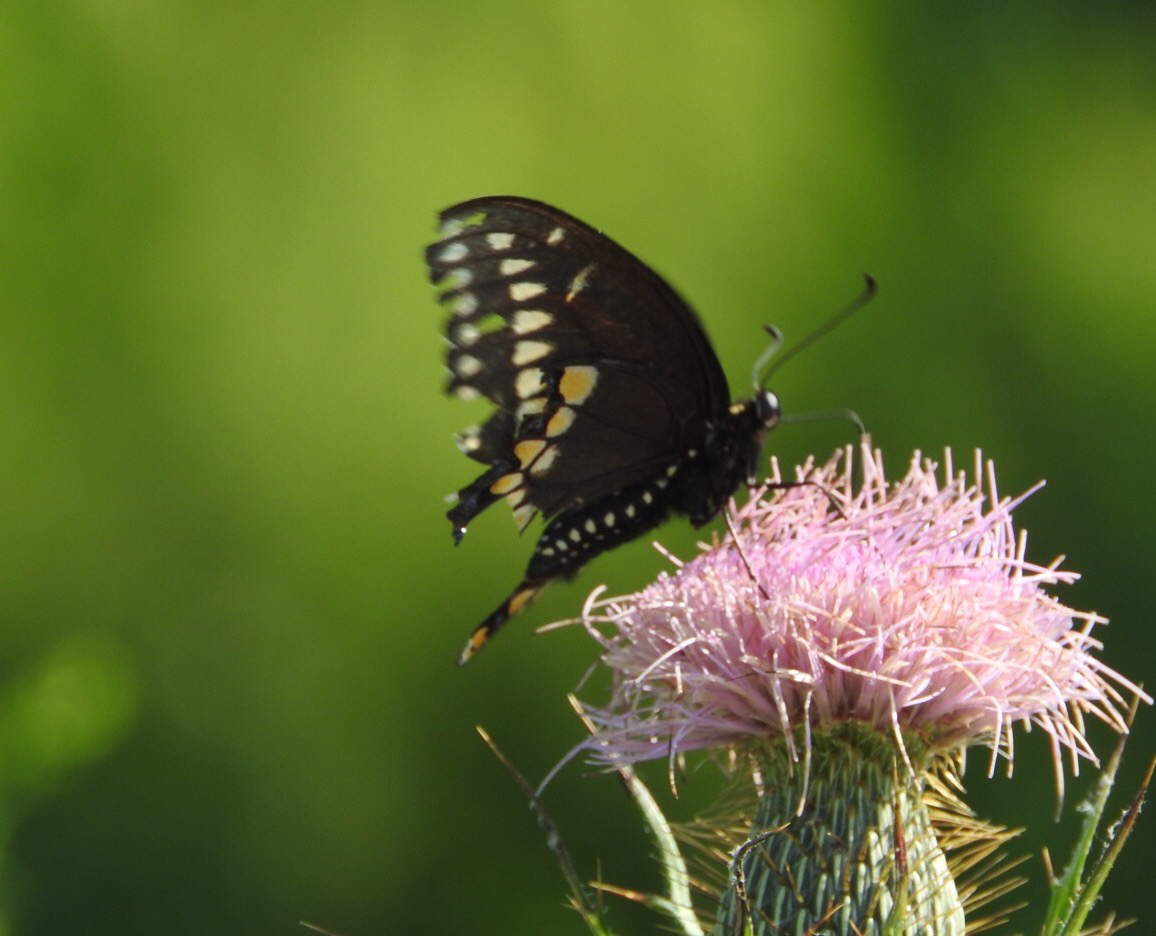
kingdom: Animalia
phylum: Arthropoda
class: Insecta
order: Lepidoptera
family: Papilionidae
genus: Papilio
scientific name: Papilio polyxenes
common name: Black swallowtail
